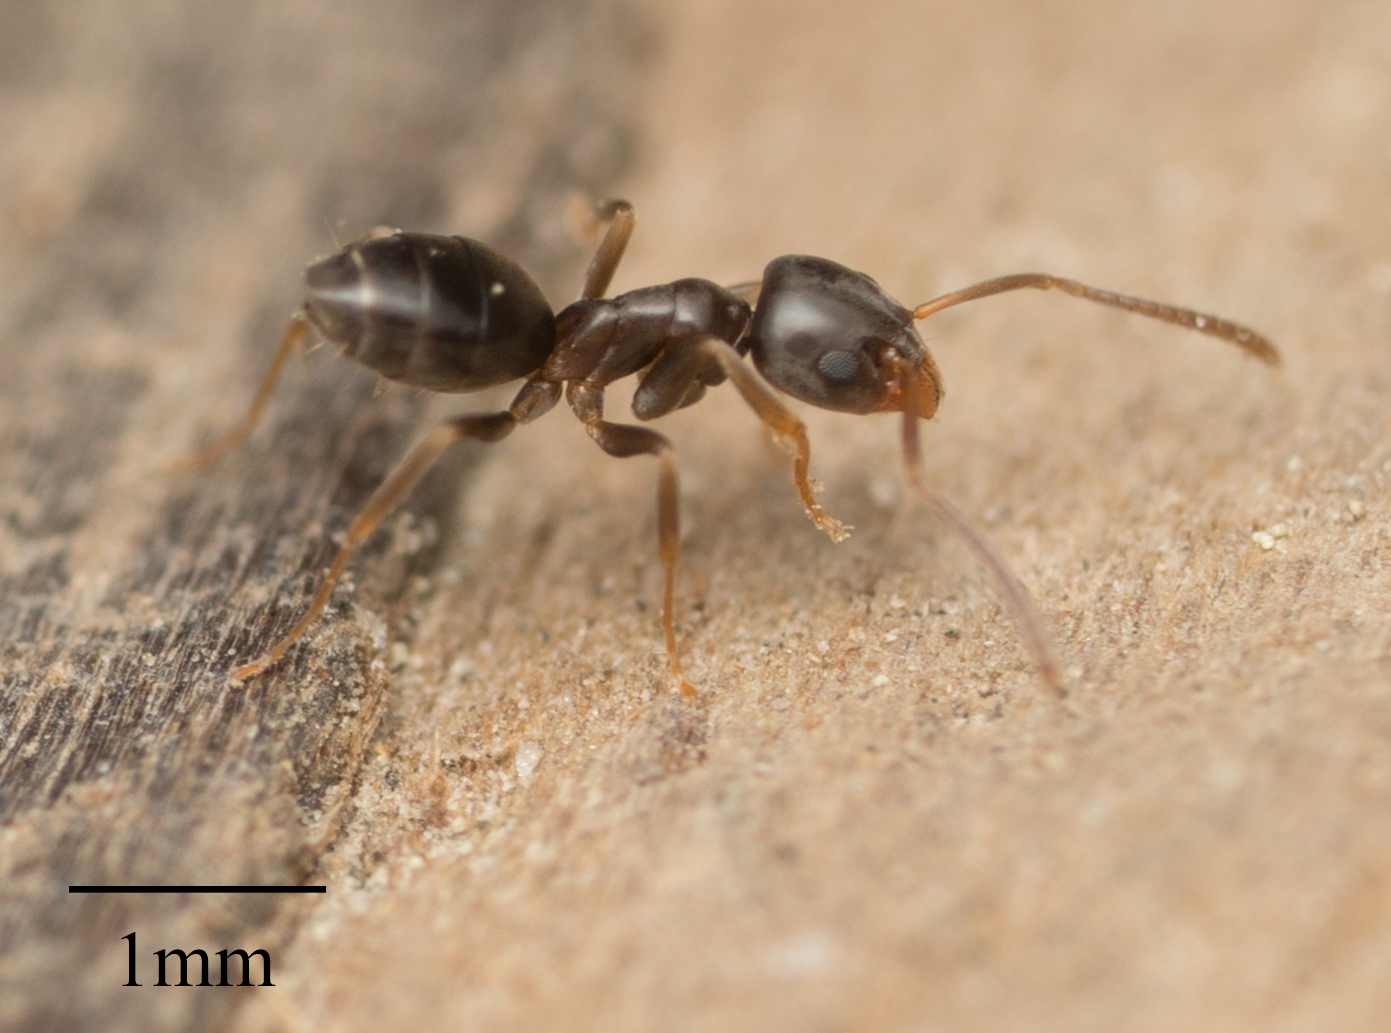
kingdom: Animalia
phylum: Arthropoda
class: Insecta
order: Hymenoptera
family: Formicidae
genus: Tapinoma
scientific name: Tapinoma sessile
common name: Odorous house ant
